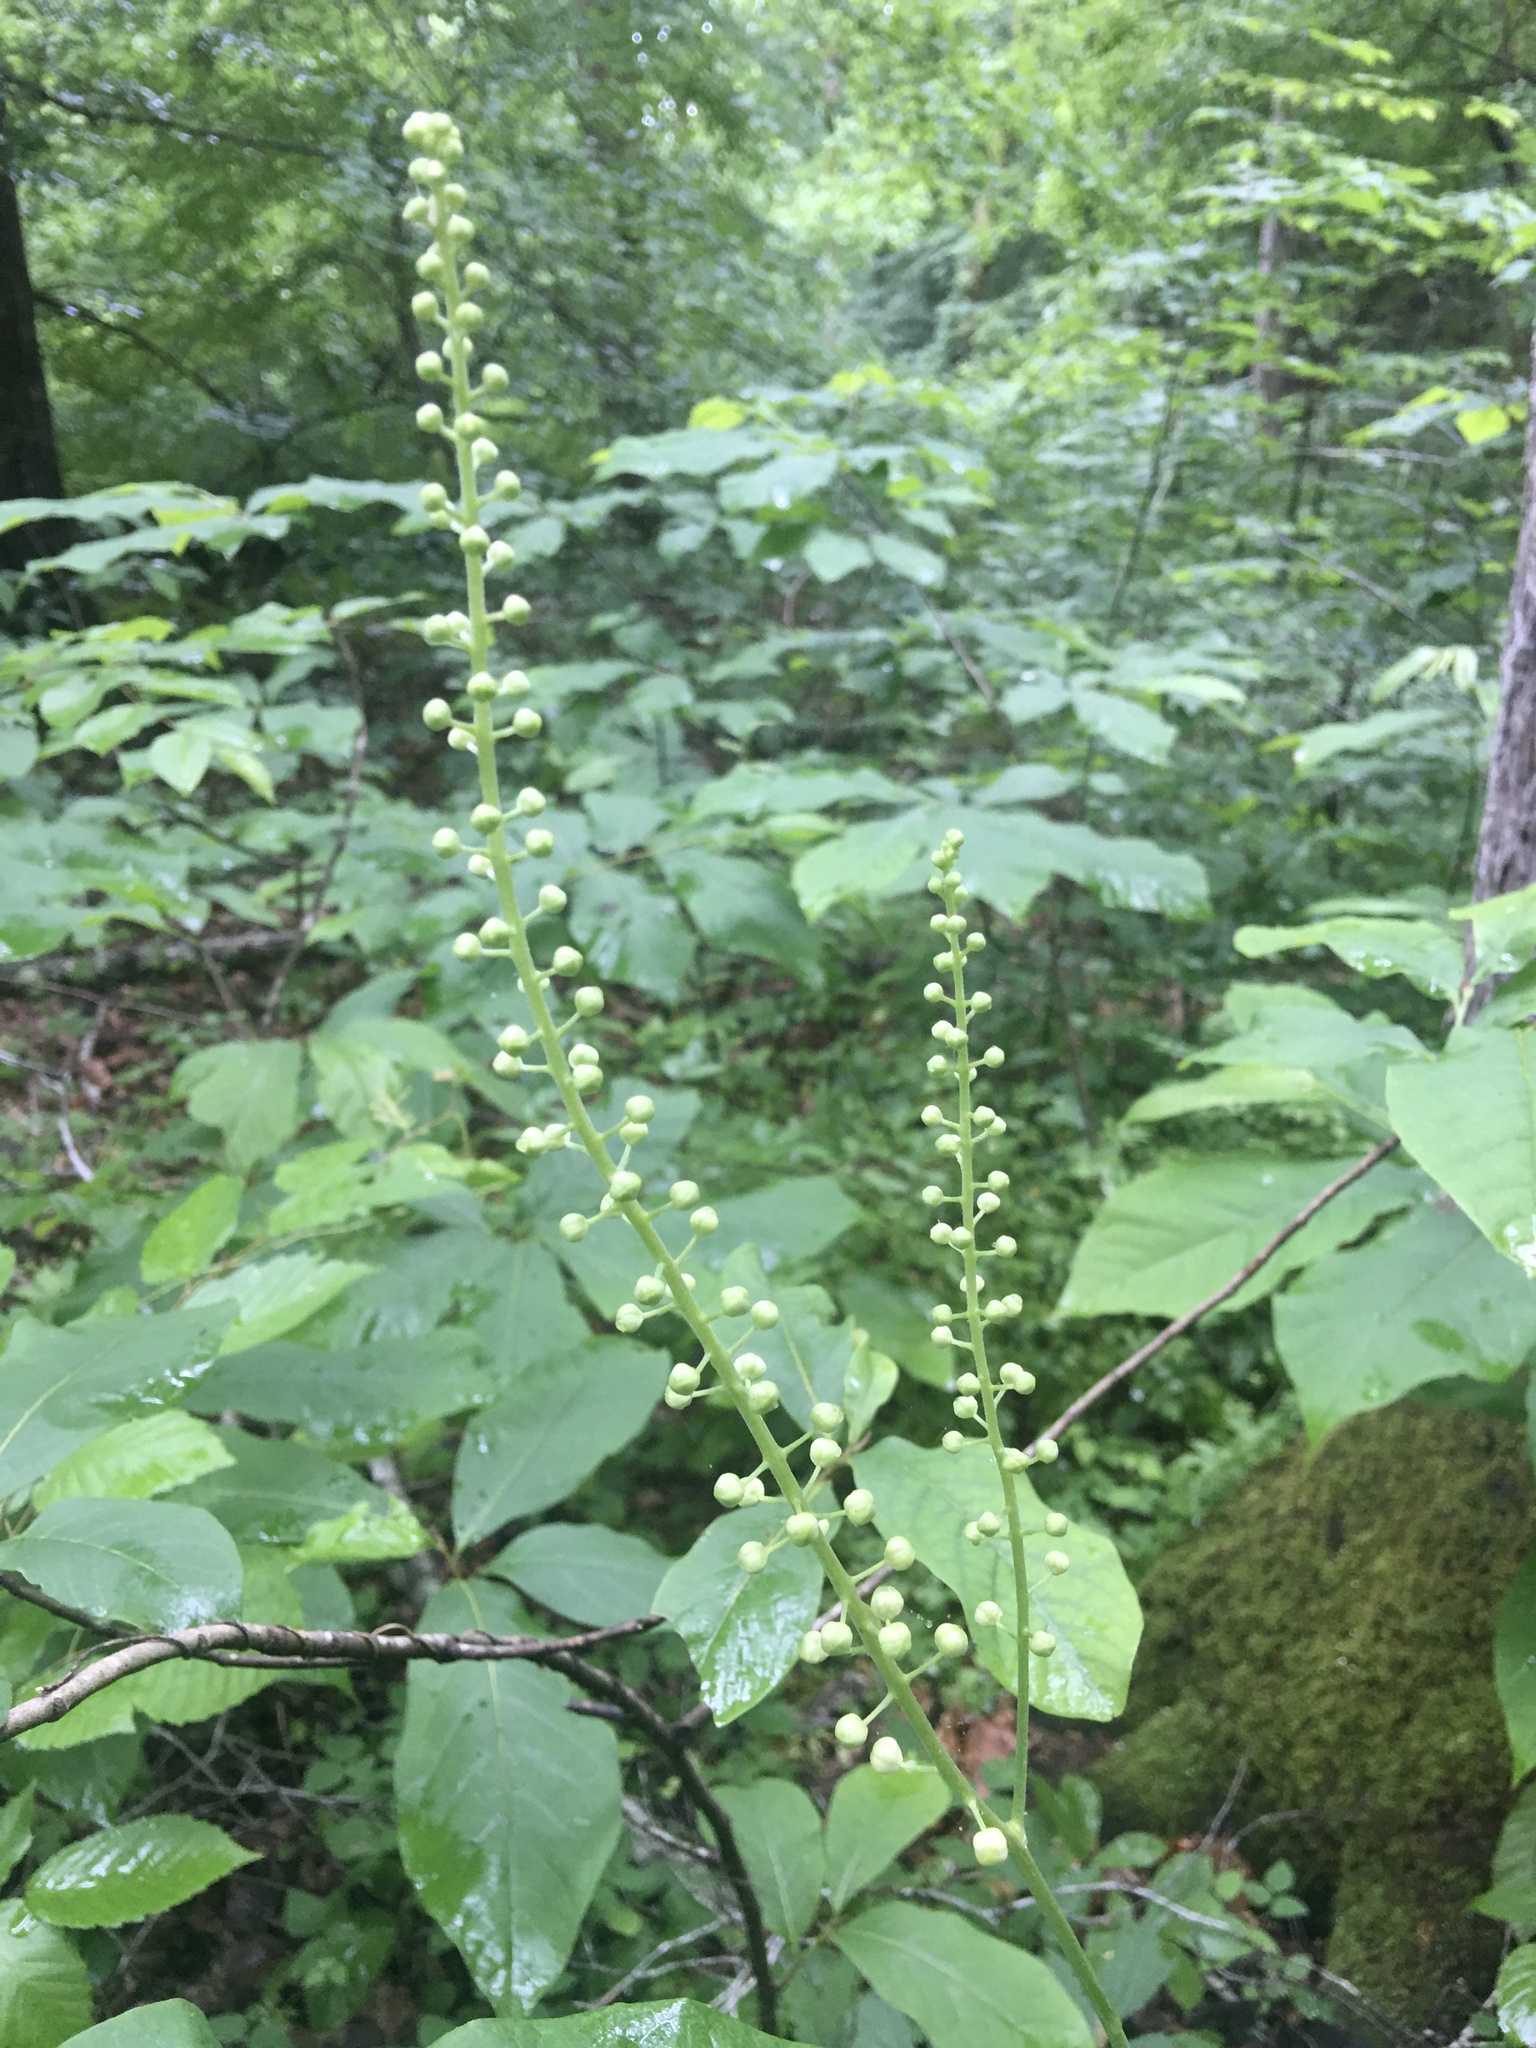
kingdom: Plantae
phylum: Tracheophyta
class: Magnoliopsida
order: Ranunculales
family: Ranunculaceae
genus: Actaea
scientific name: Actaea racemosa
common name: Black cohosh
